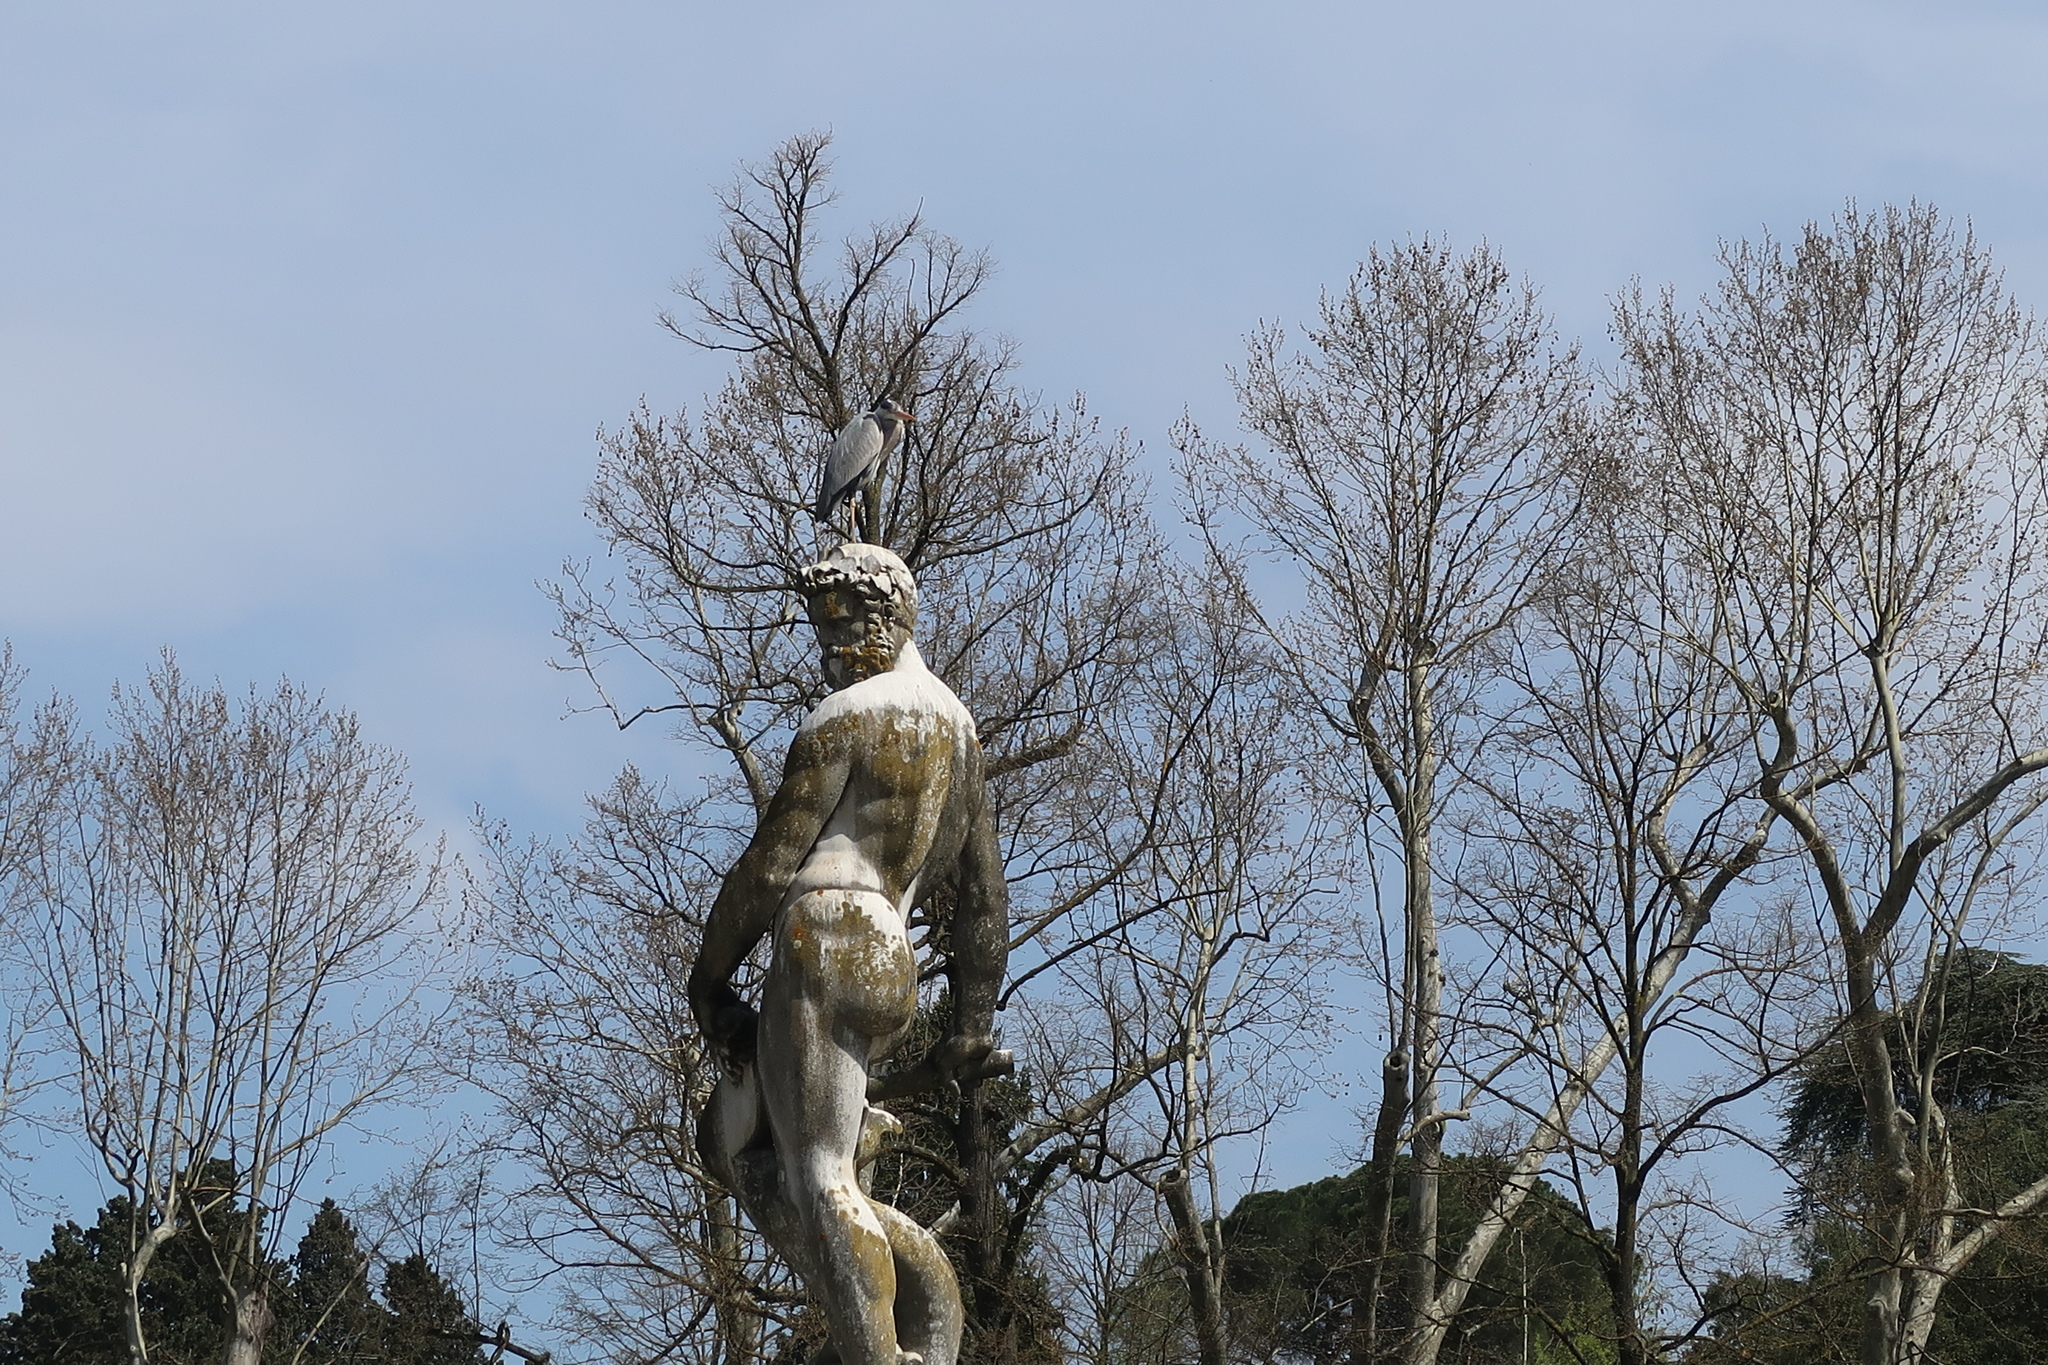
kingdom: Animalia
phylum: Chordata
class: Aves
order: Pelecaniformes
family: Ardeidae
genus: Ardea
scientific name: Ardea cinerea
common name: Grey heron
